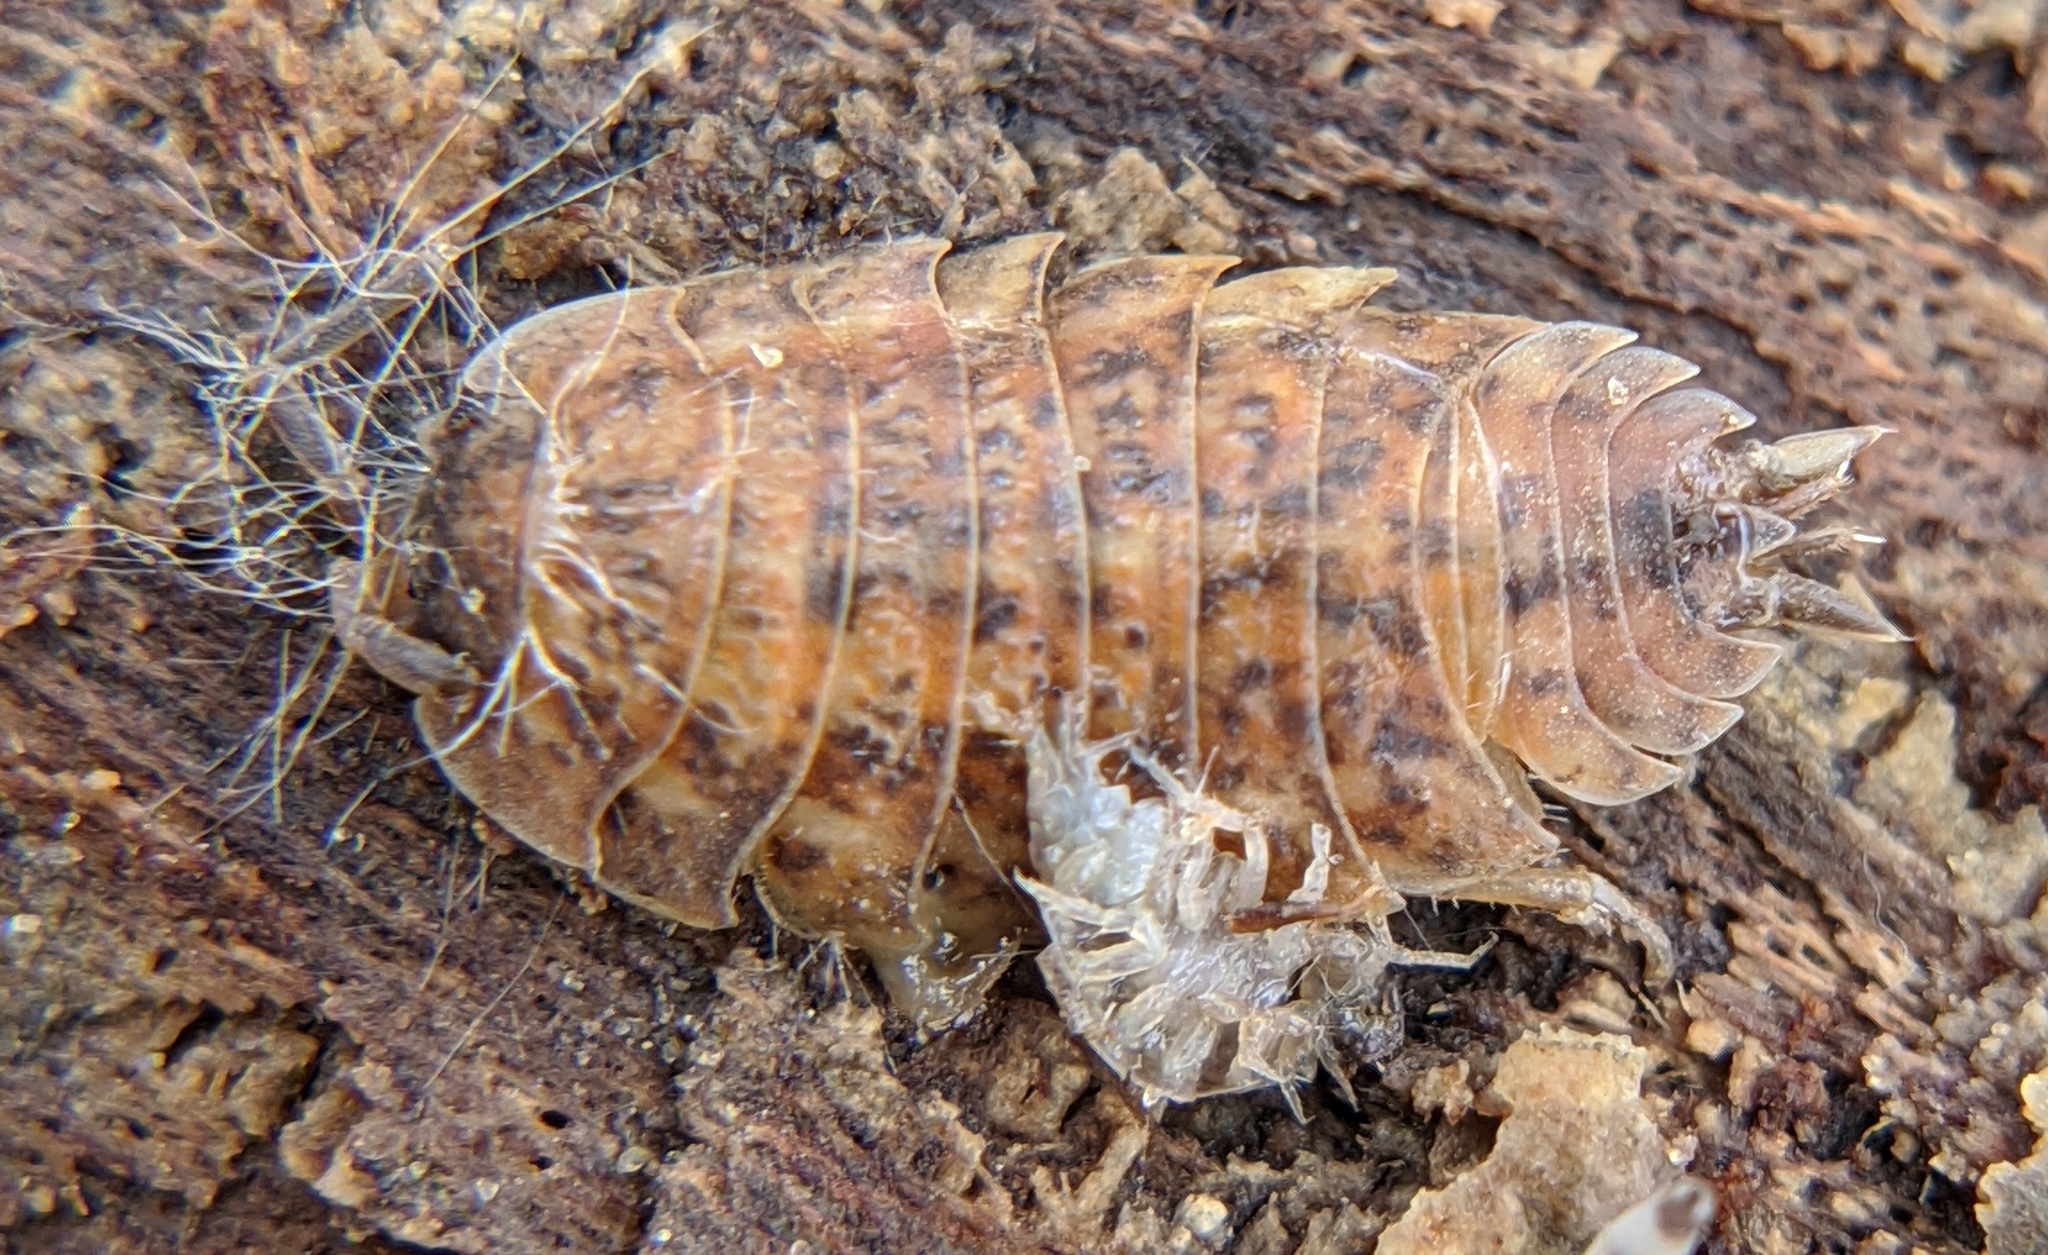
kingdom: Animalia
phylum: Arthropoda
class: Malacostraca
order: Isopoda
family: Trachelipodidae
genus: Trachelipus
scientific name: Trachelipus rathkii
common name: Isopod
